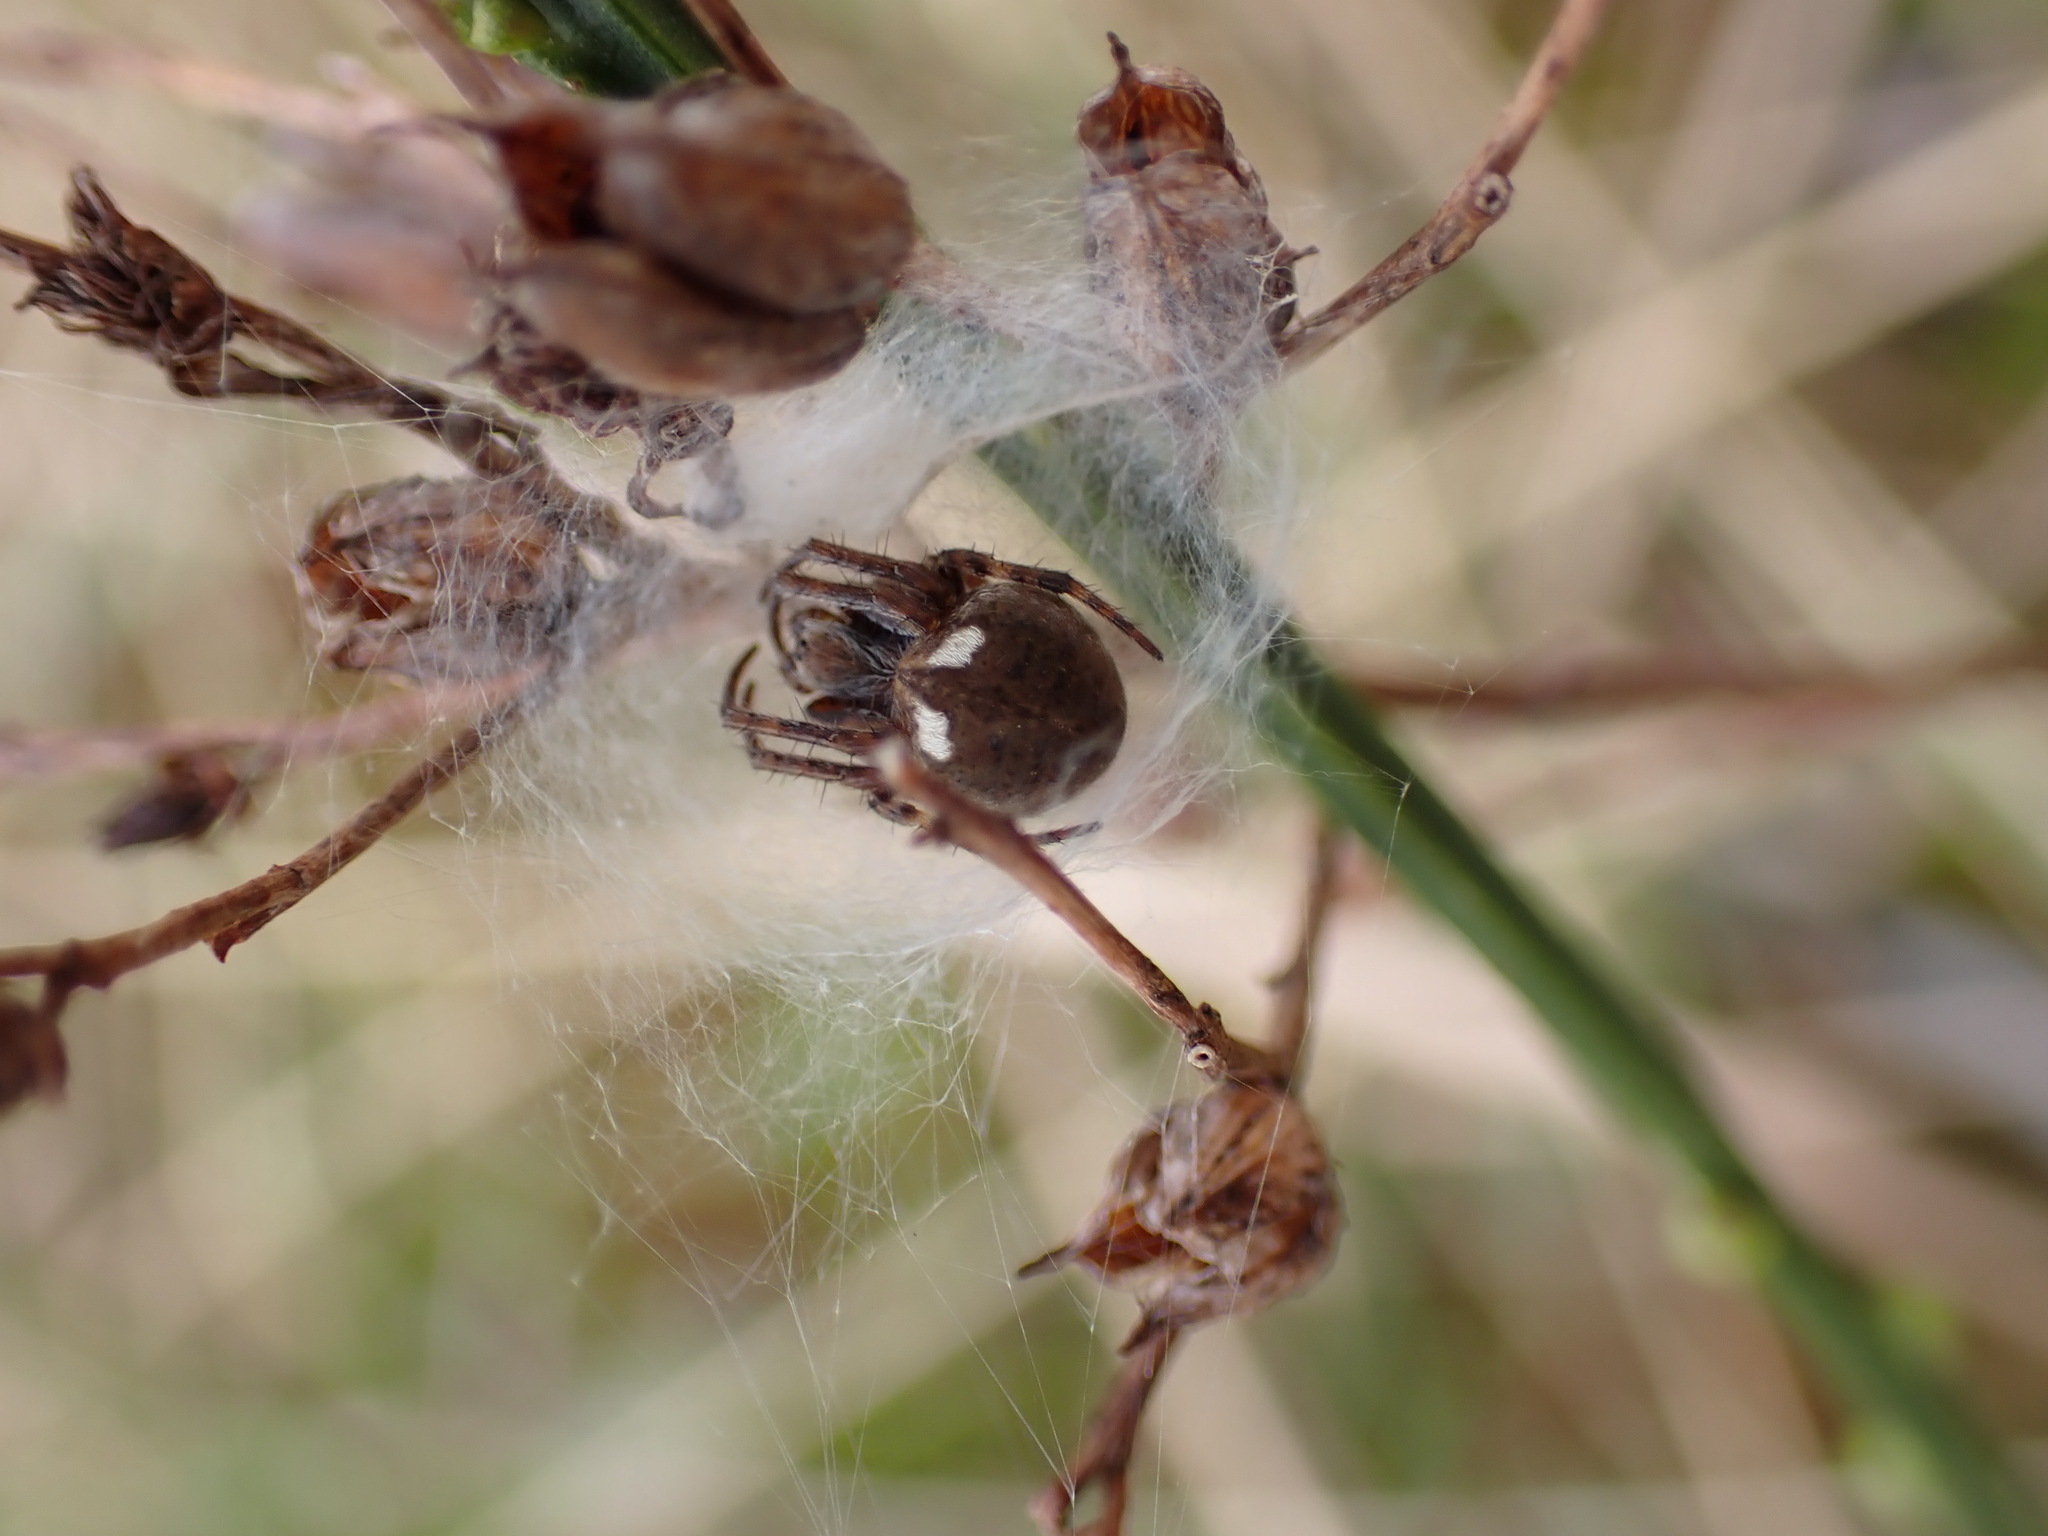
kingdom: Animalia
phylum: Arthropoda
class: Arachnida
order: Araneae
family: Araneidae
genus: Agalenatea
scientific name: Agalenatea redii
